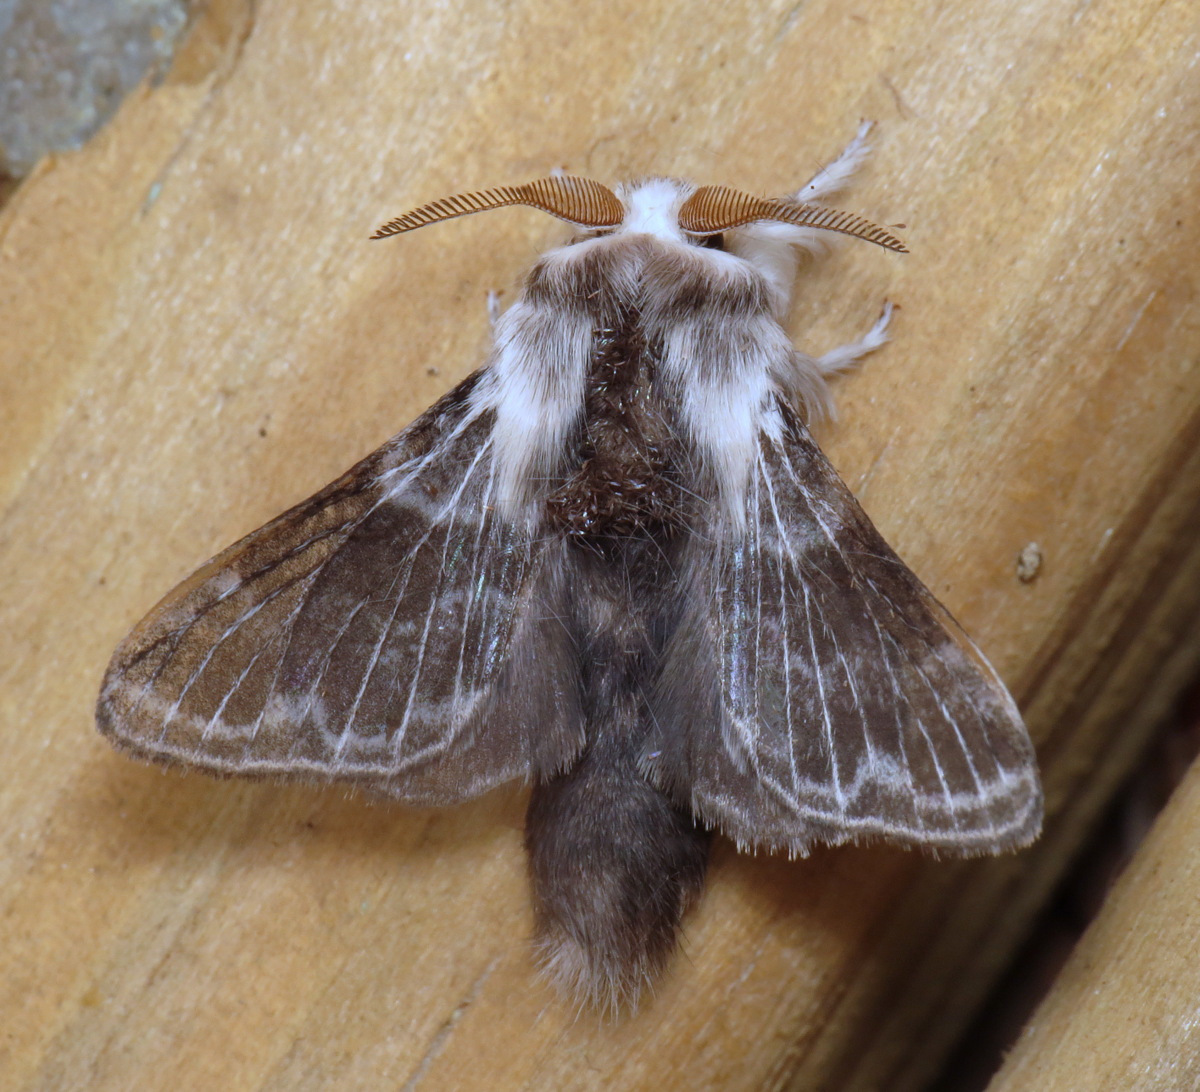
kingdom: Animalia
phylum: Arthropoda
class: Insecta
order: Lepidoptera
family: Lasiocampidae
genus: Tolype
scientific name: Tolype laricis
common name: Larch tolype moth
